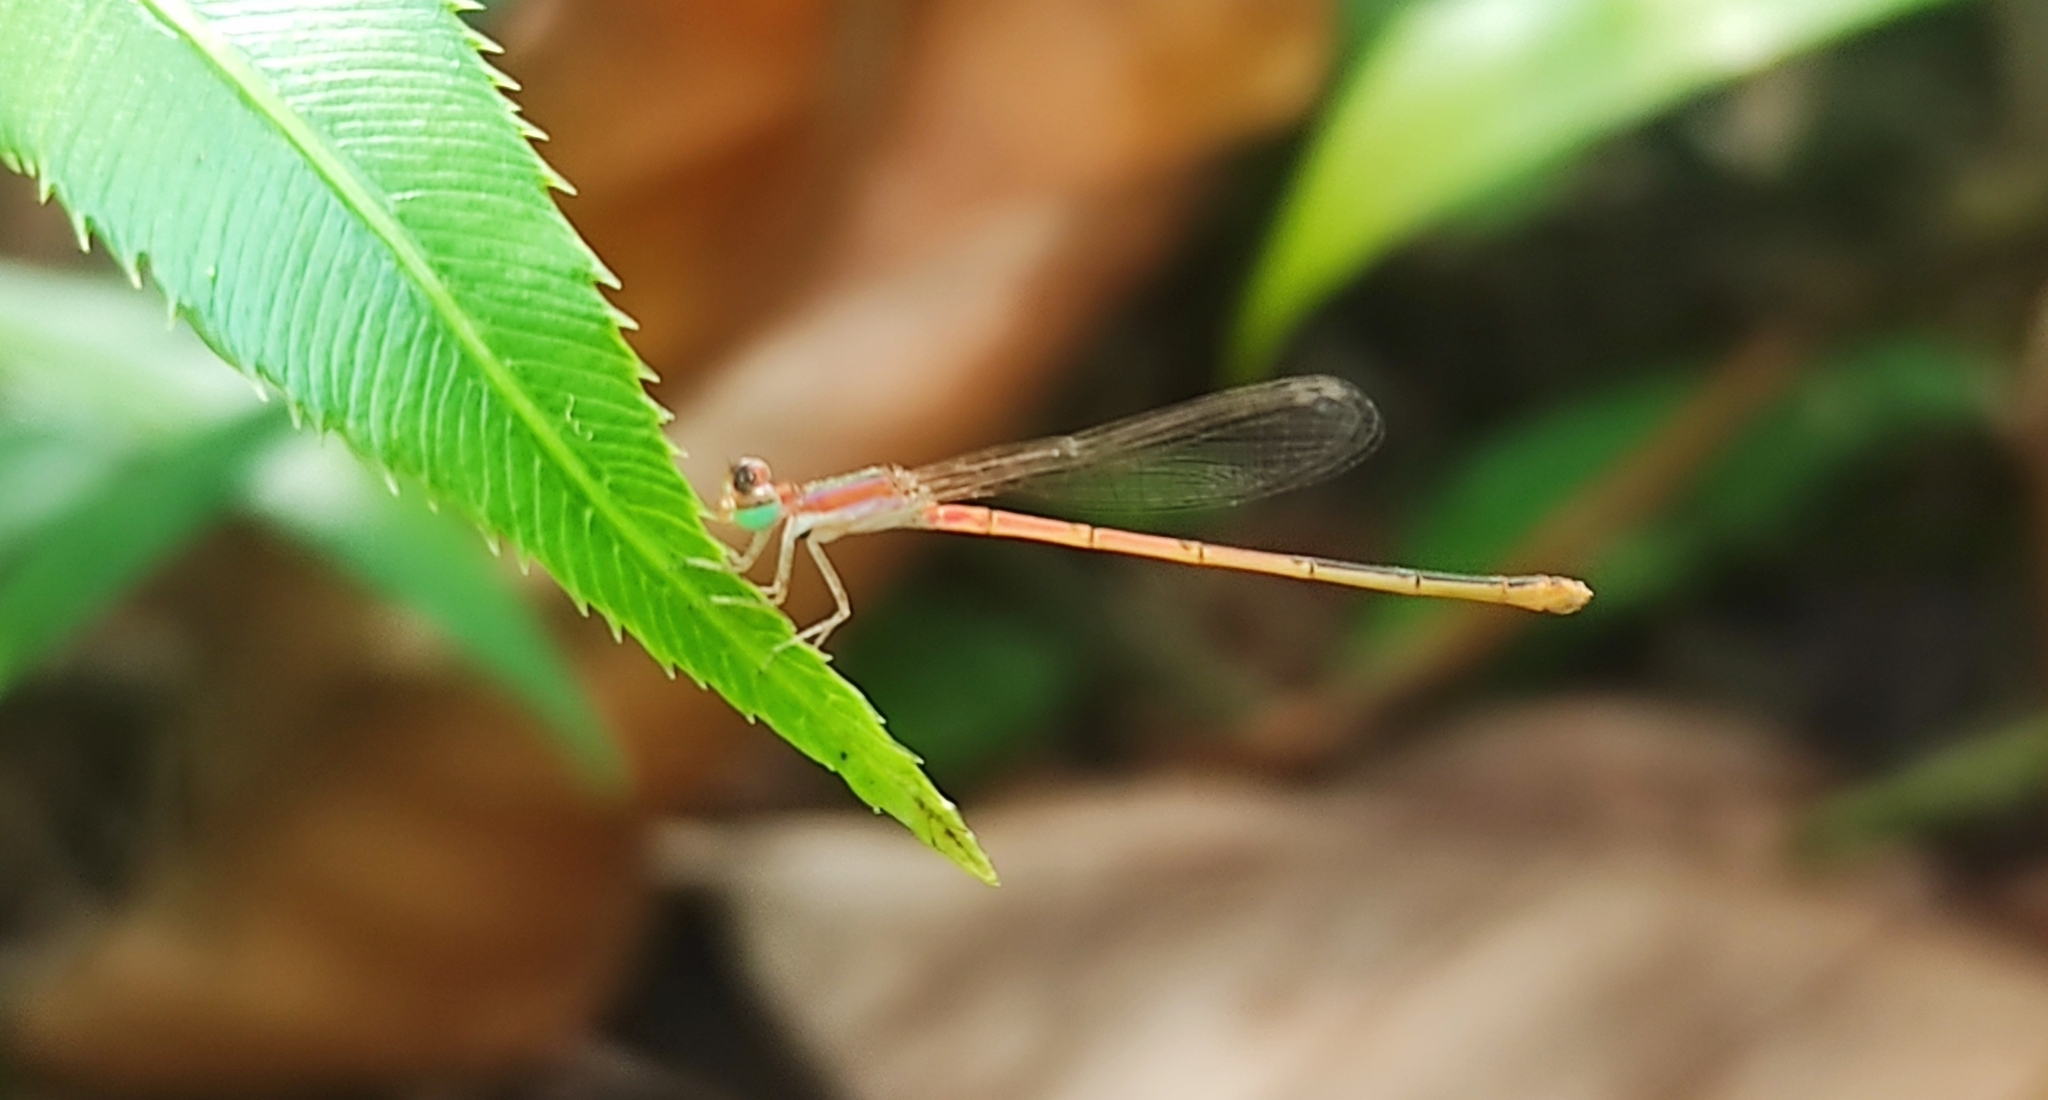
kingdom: Animalia
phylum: Arthropoda
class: Insecta
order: Odonata
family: Coenagrionidae
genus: Agriocnemis
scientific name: Agriocnemis pygmaea
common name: Pygmy wisp
